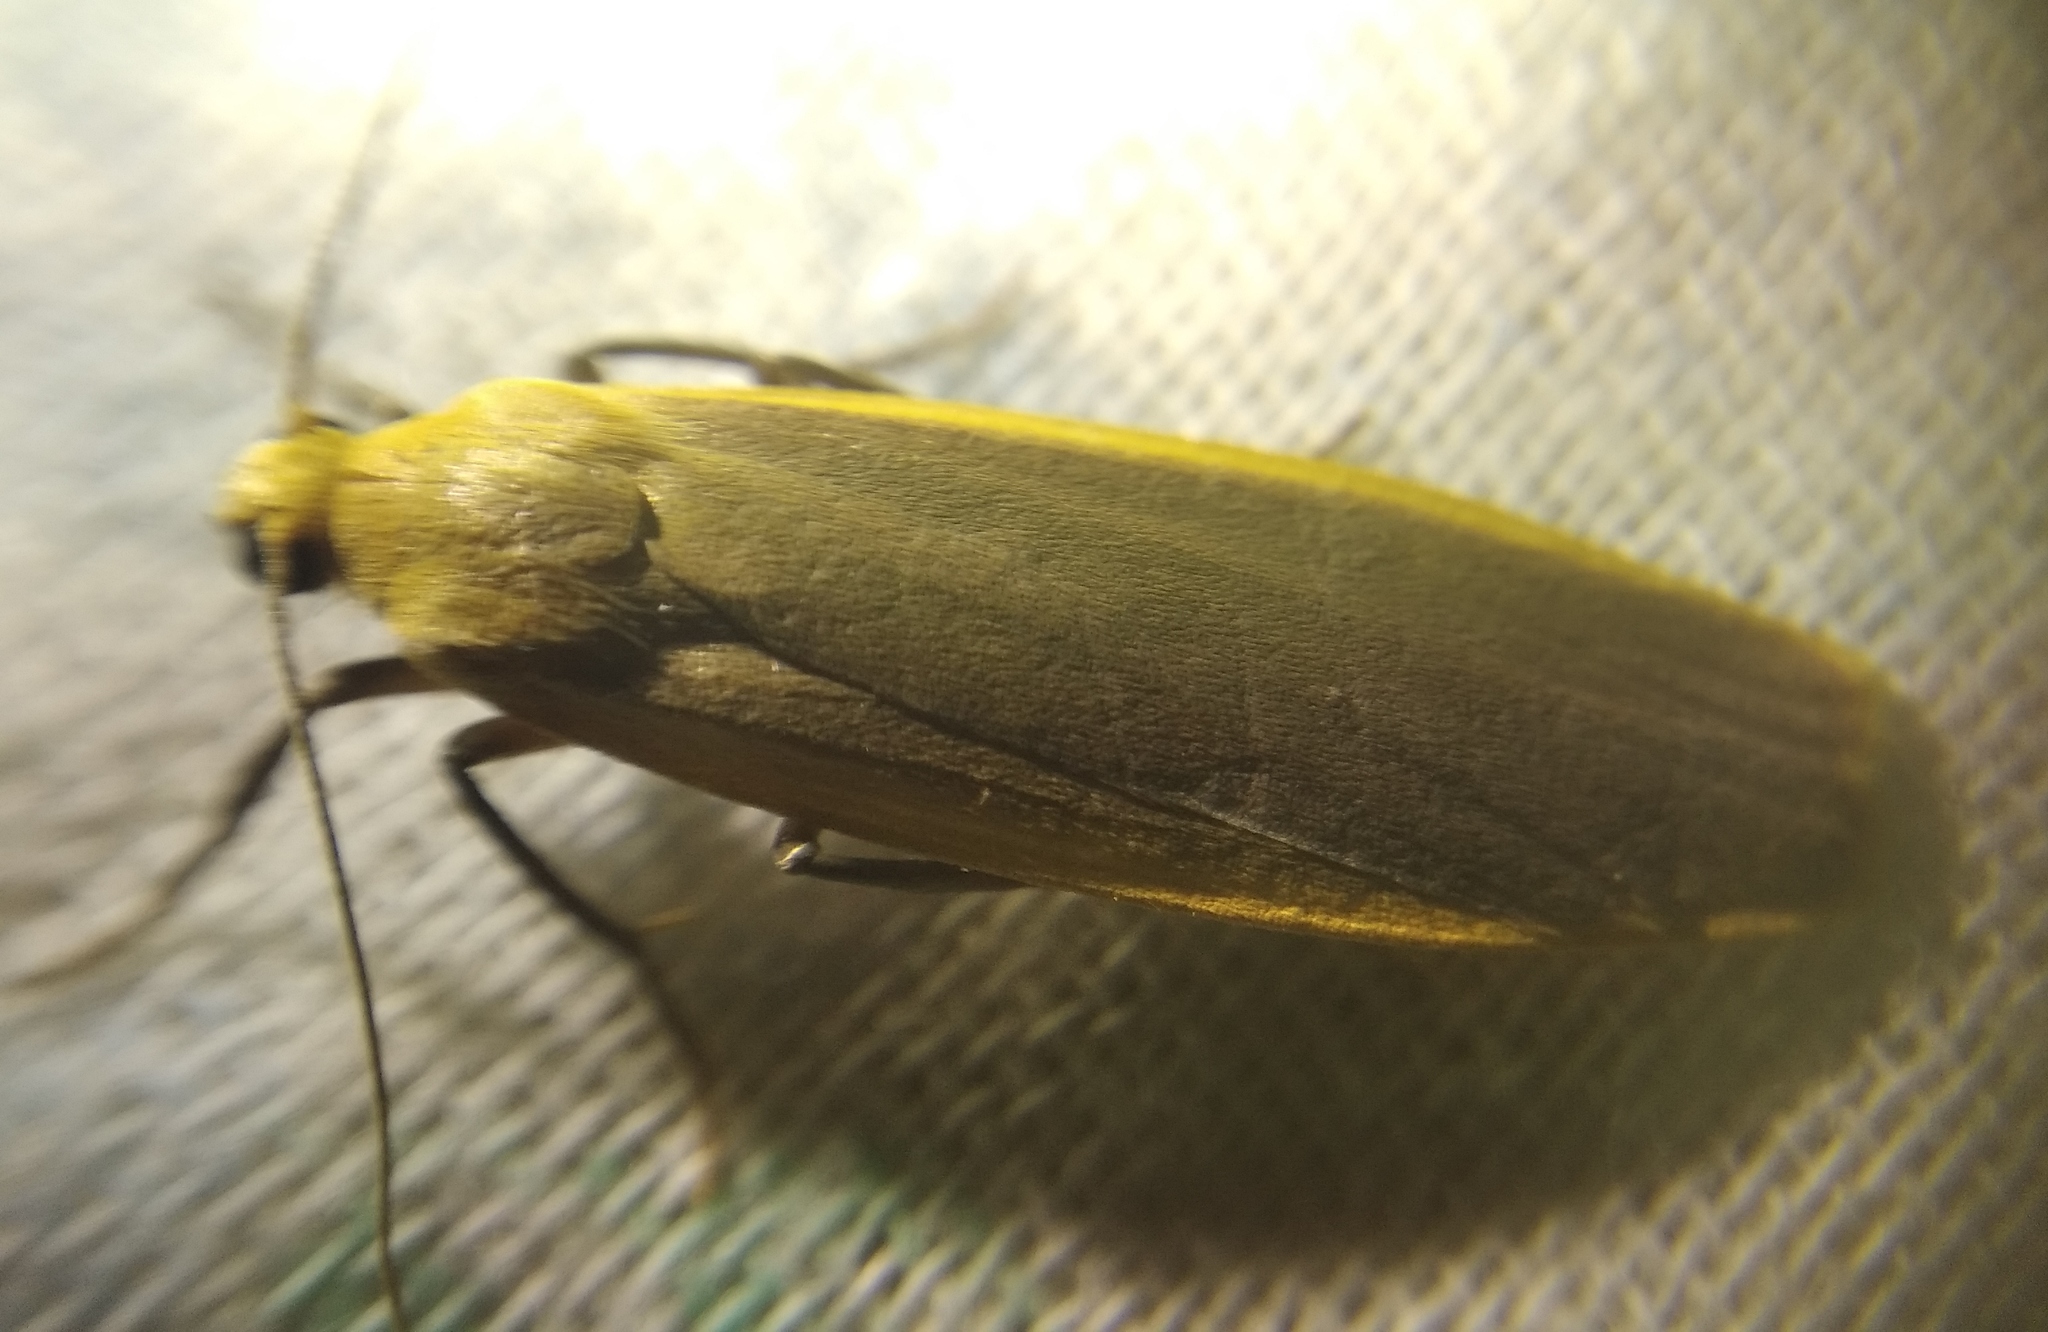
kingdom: Animalia
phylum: Arthropoda
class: Insecta
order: Lepidoptera
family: Erebidae
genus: Katha
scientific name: Katha depressa
